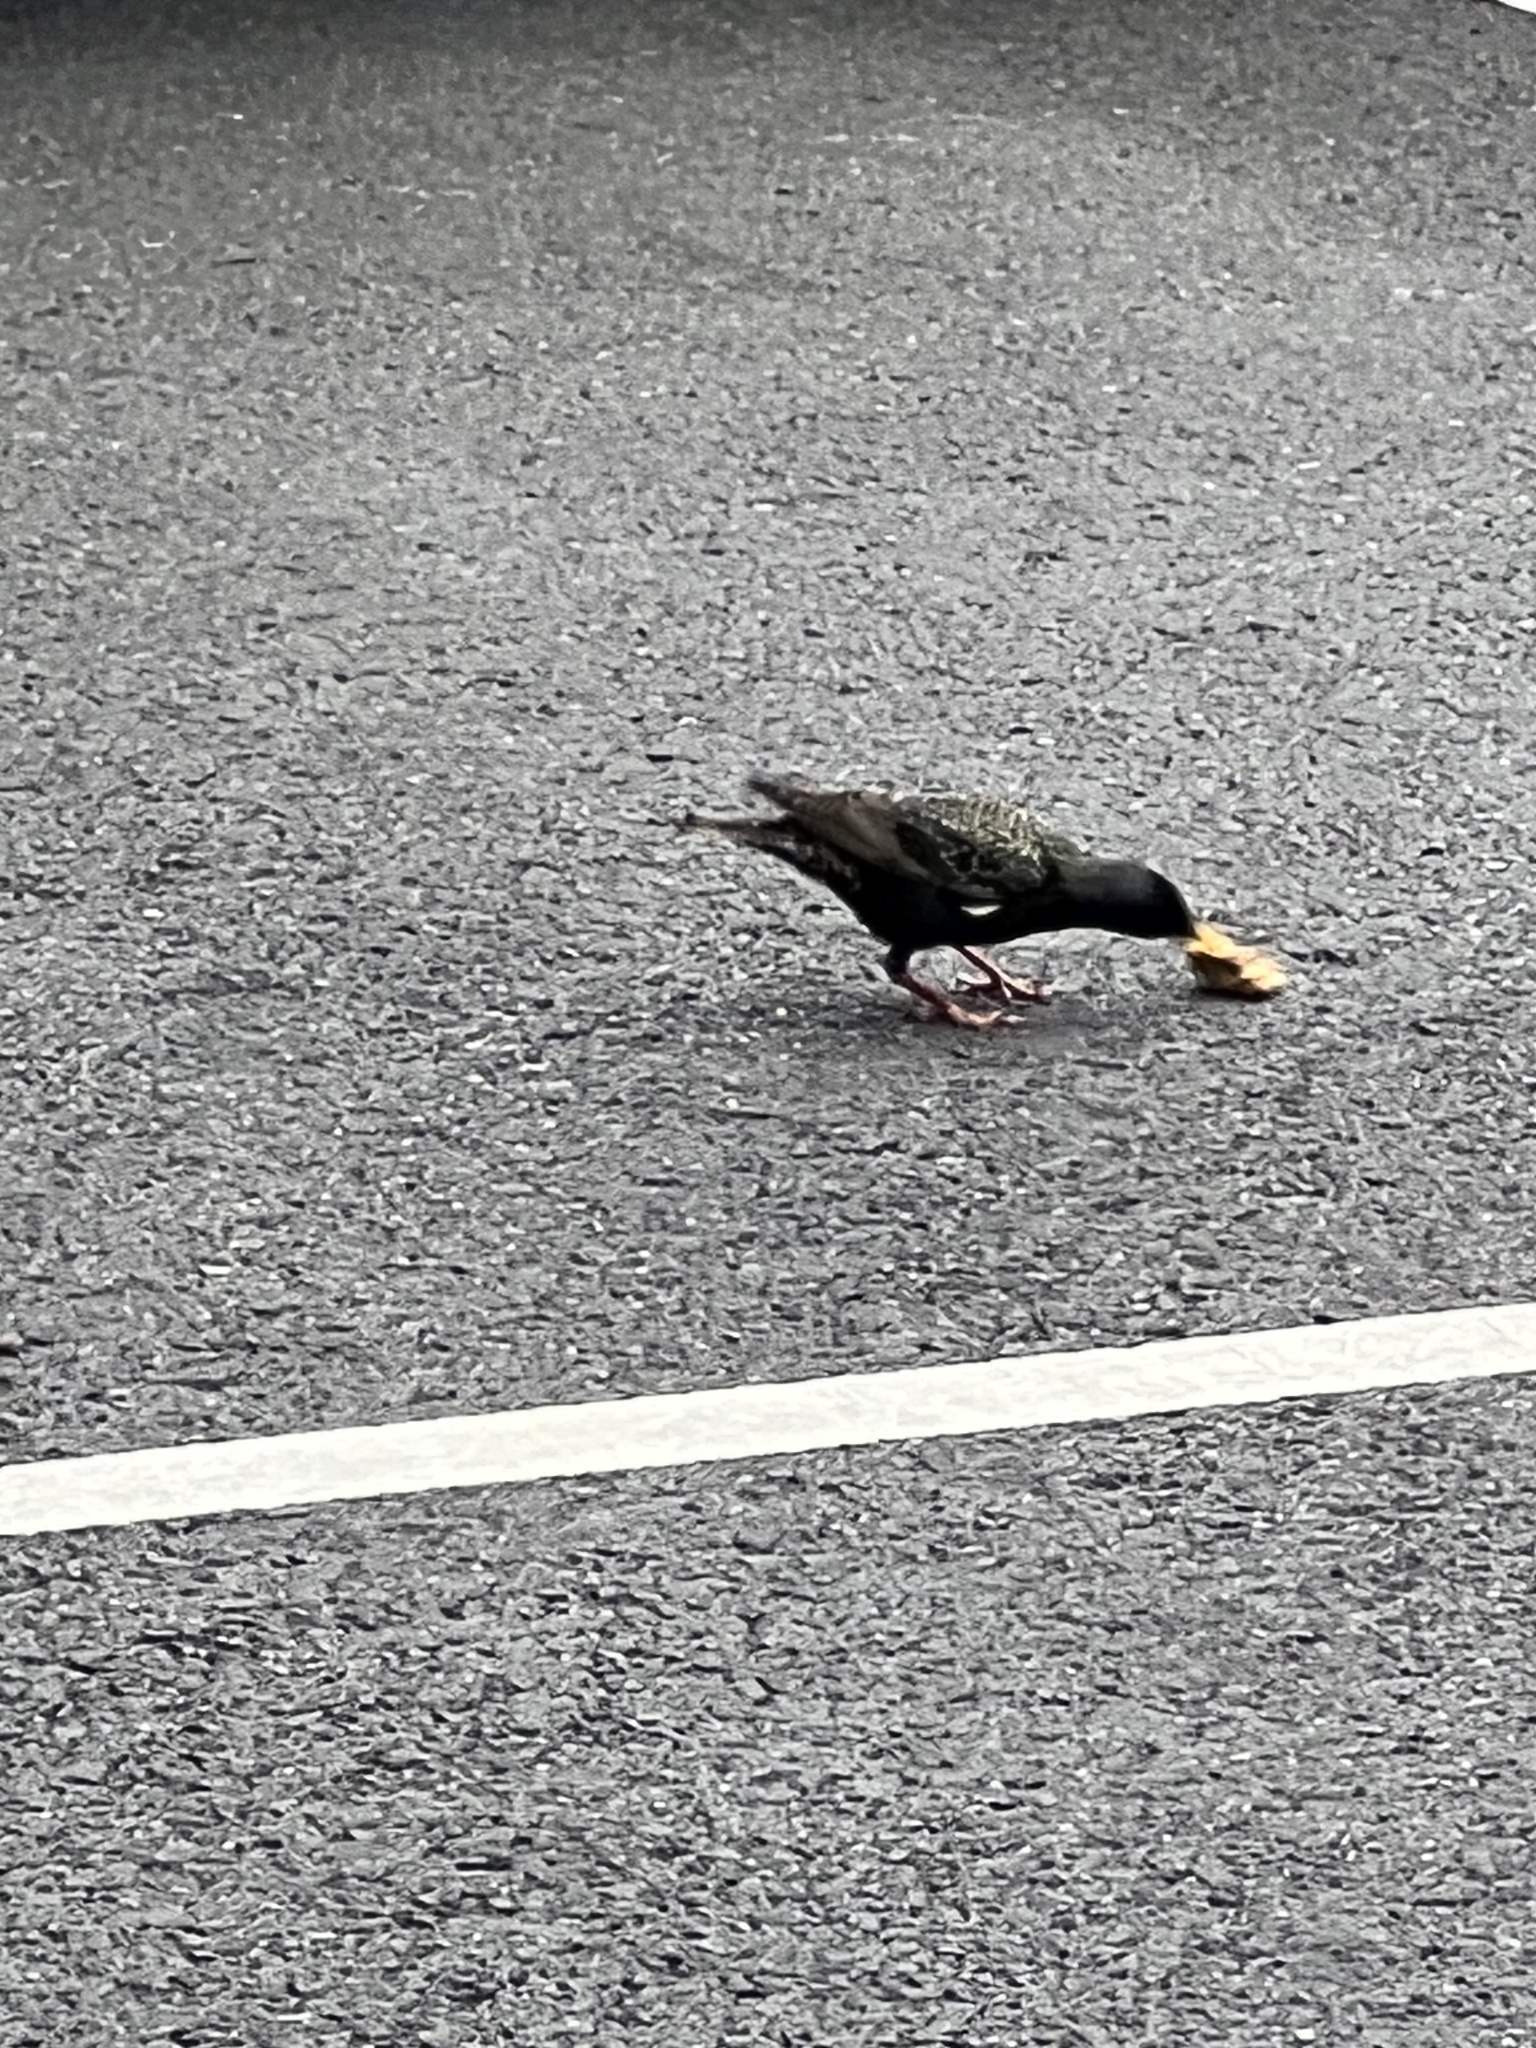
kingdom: Animalia
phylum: Chordata
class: Aves
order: Passeriformes
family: Sturnidae
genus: Sturnus
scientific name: Sturnus vulgaris
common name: Common starling
